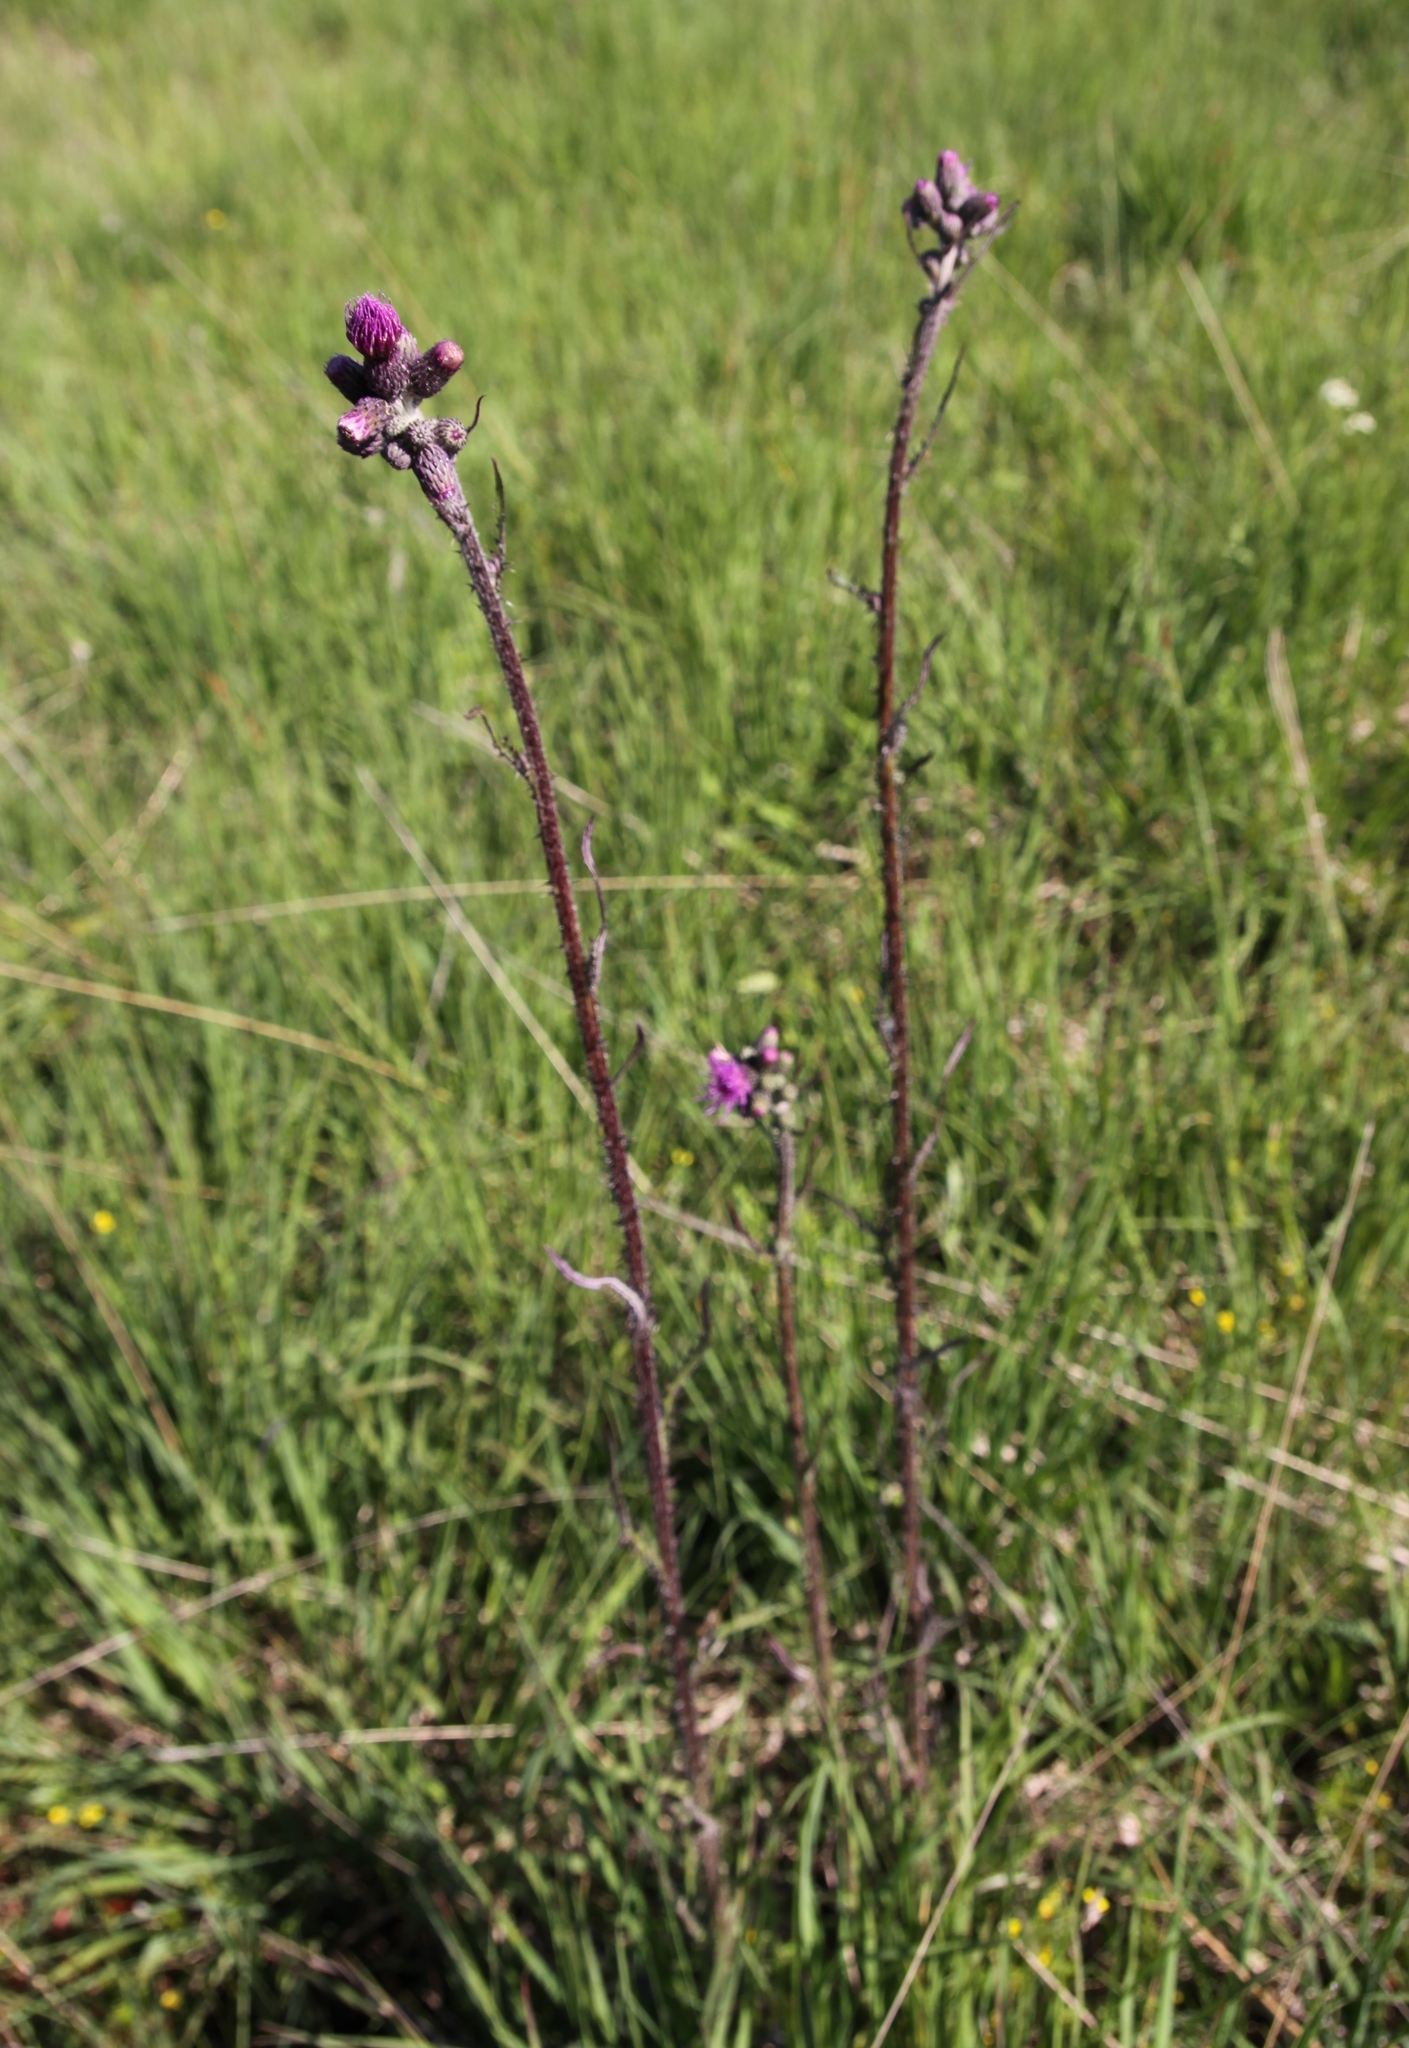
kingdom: Plantae
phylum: Tracheophyta
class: Magnoliopsida
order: Asterales
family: Asteraceae
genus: Cirsium
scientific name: Cirsium palustre
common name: Marsh thistle
